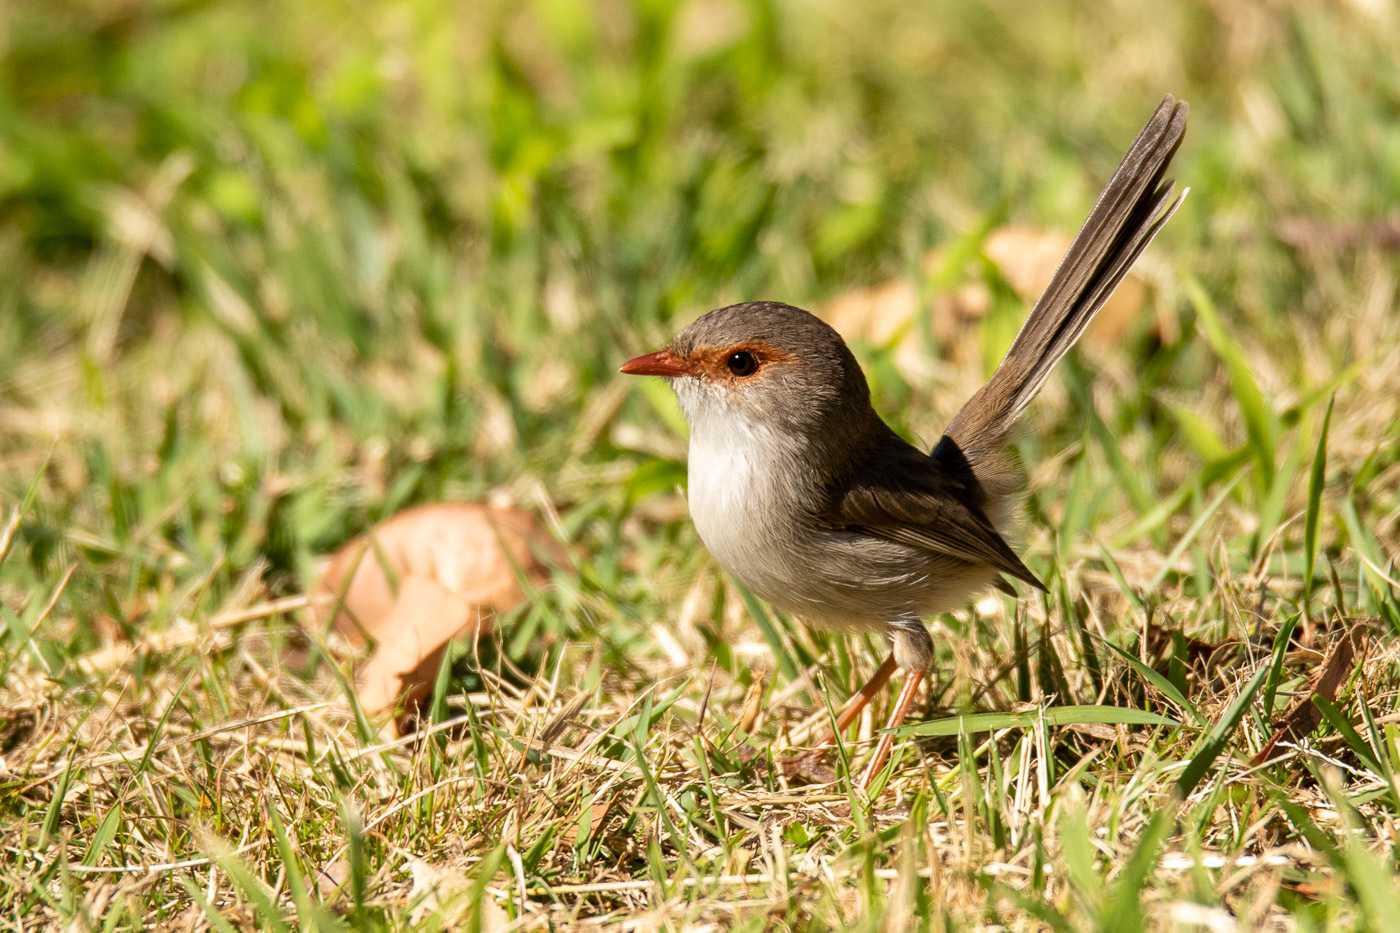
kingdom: Animalia
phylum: Chordata
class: Aves
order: Passeriformes
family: Maluridae
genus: Malurus
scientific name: Malurus cyaneus
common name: Superb fairywren
